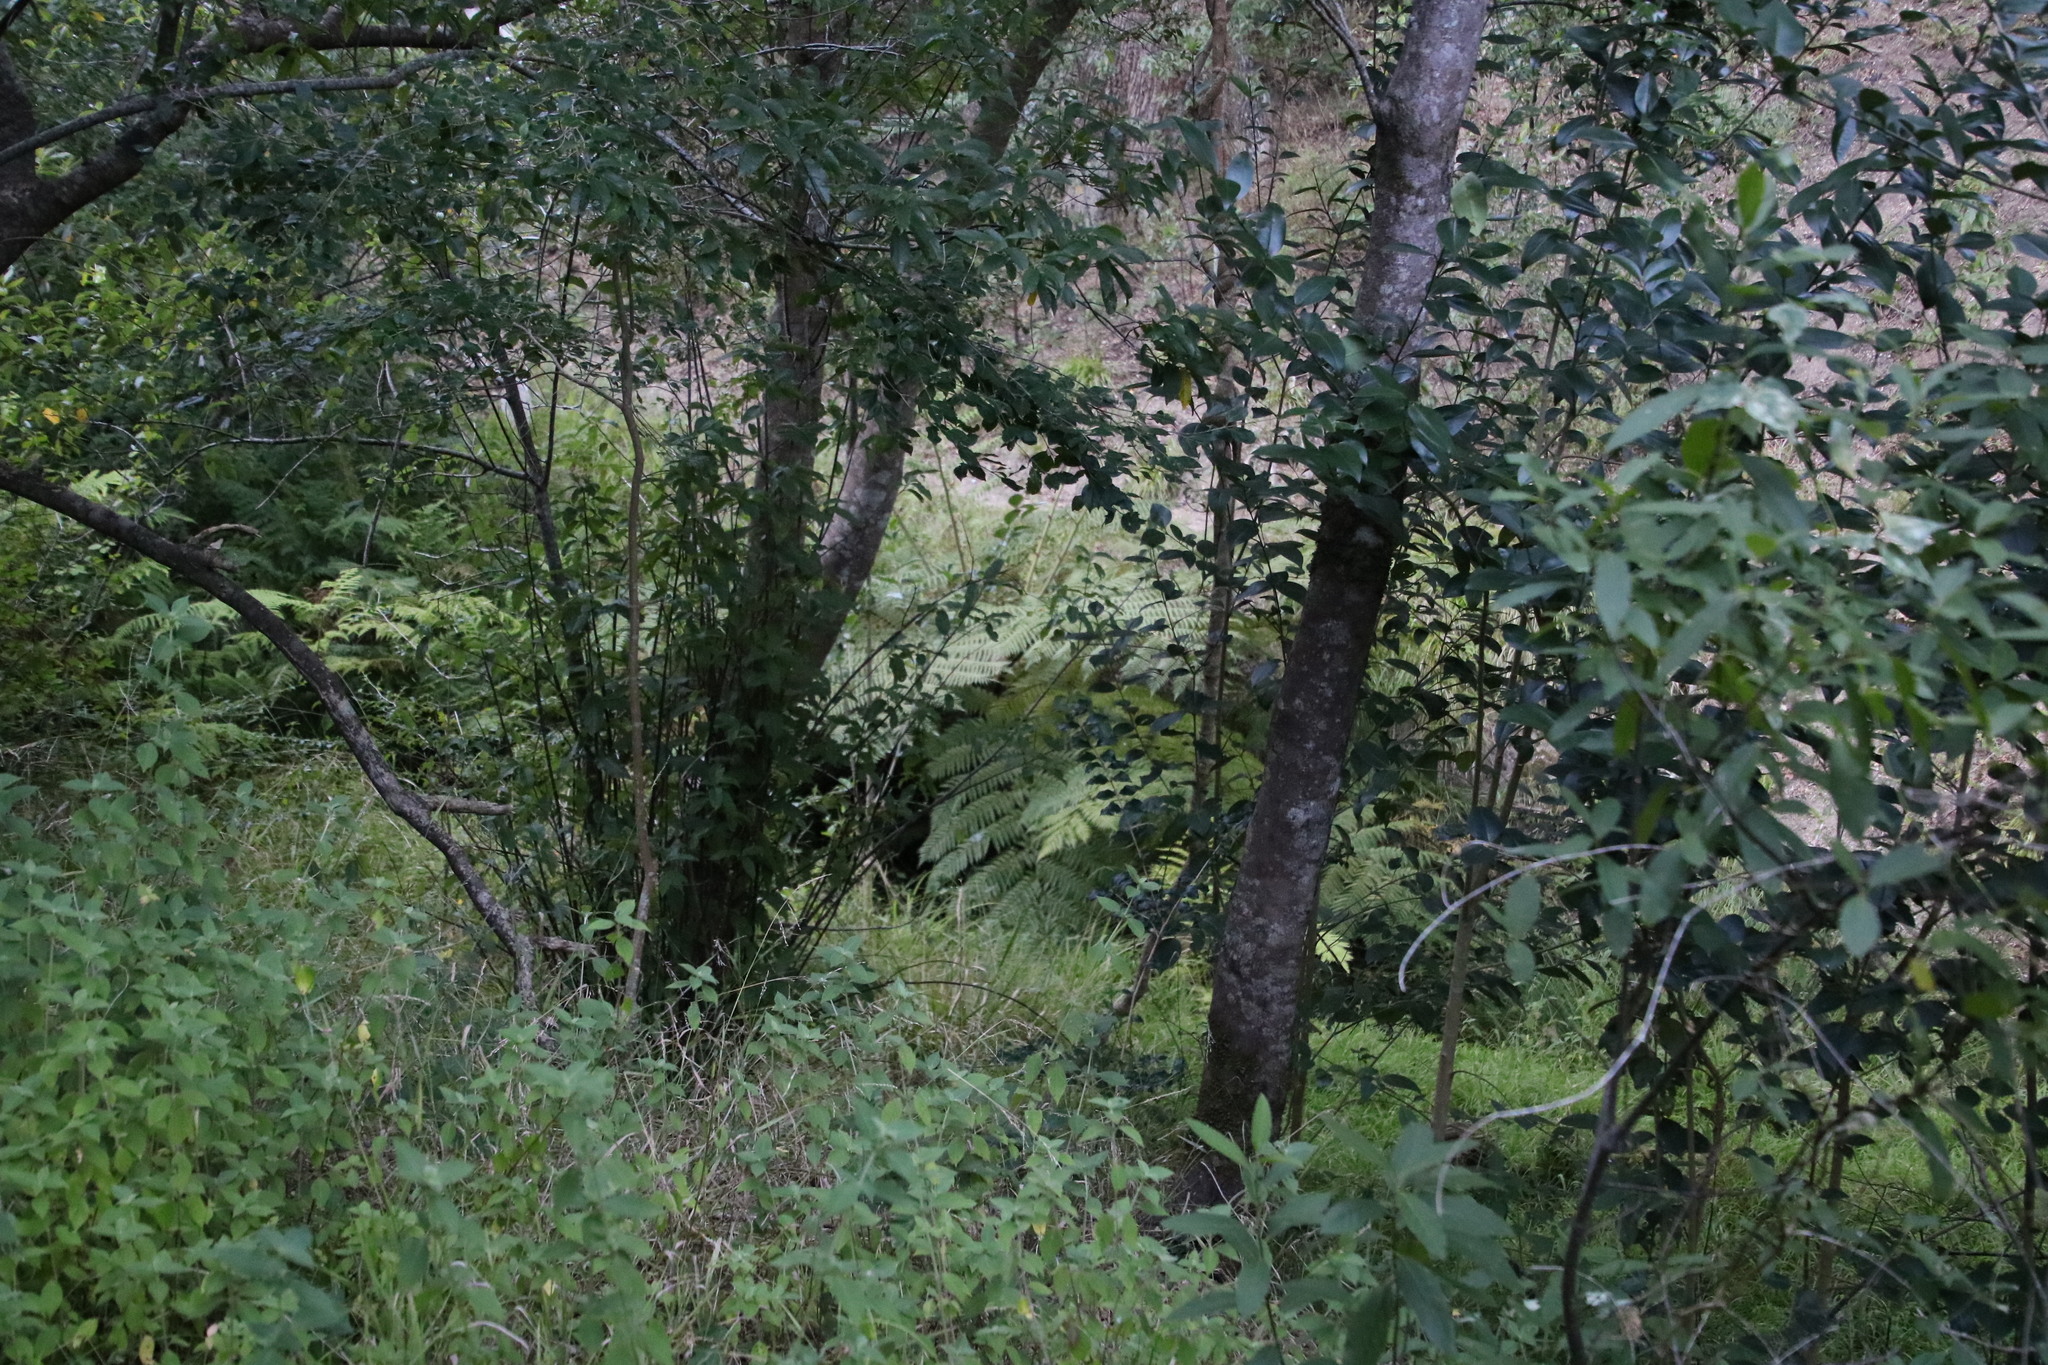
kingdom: Plantae
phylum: Tracheophyta
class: Polypodiopsida
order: Cyatheales
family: Cyatheaceae
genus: Sphaeropteris
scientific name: Sphaeropteris cooperi
